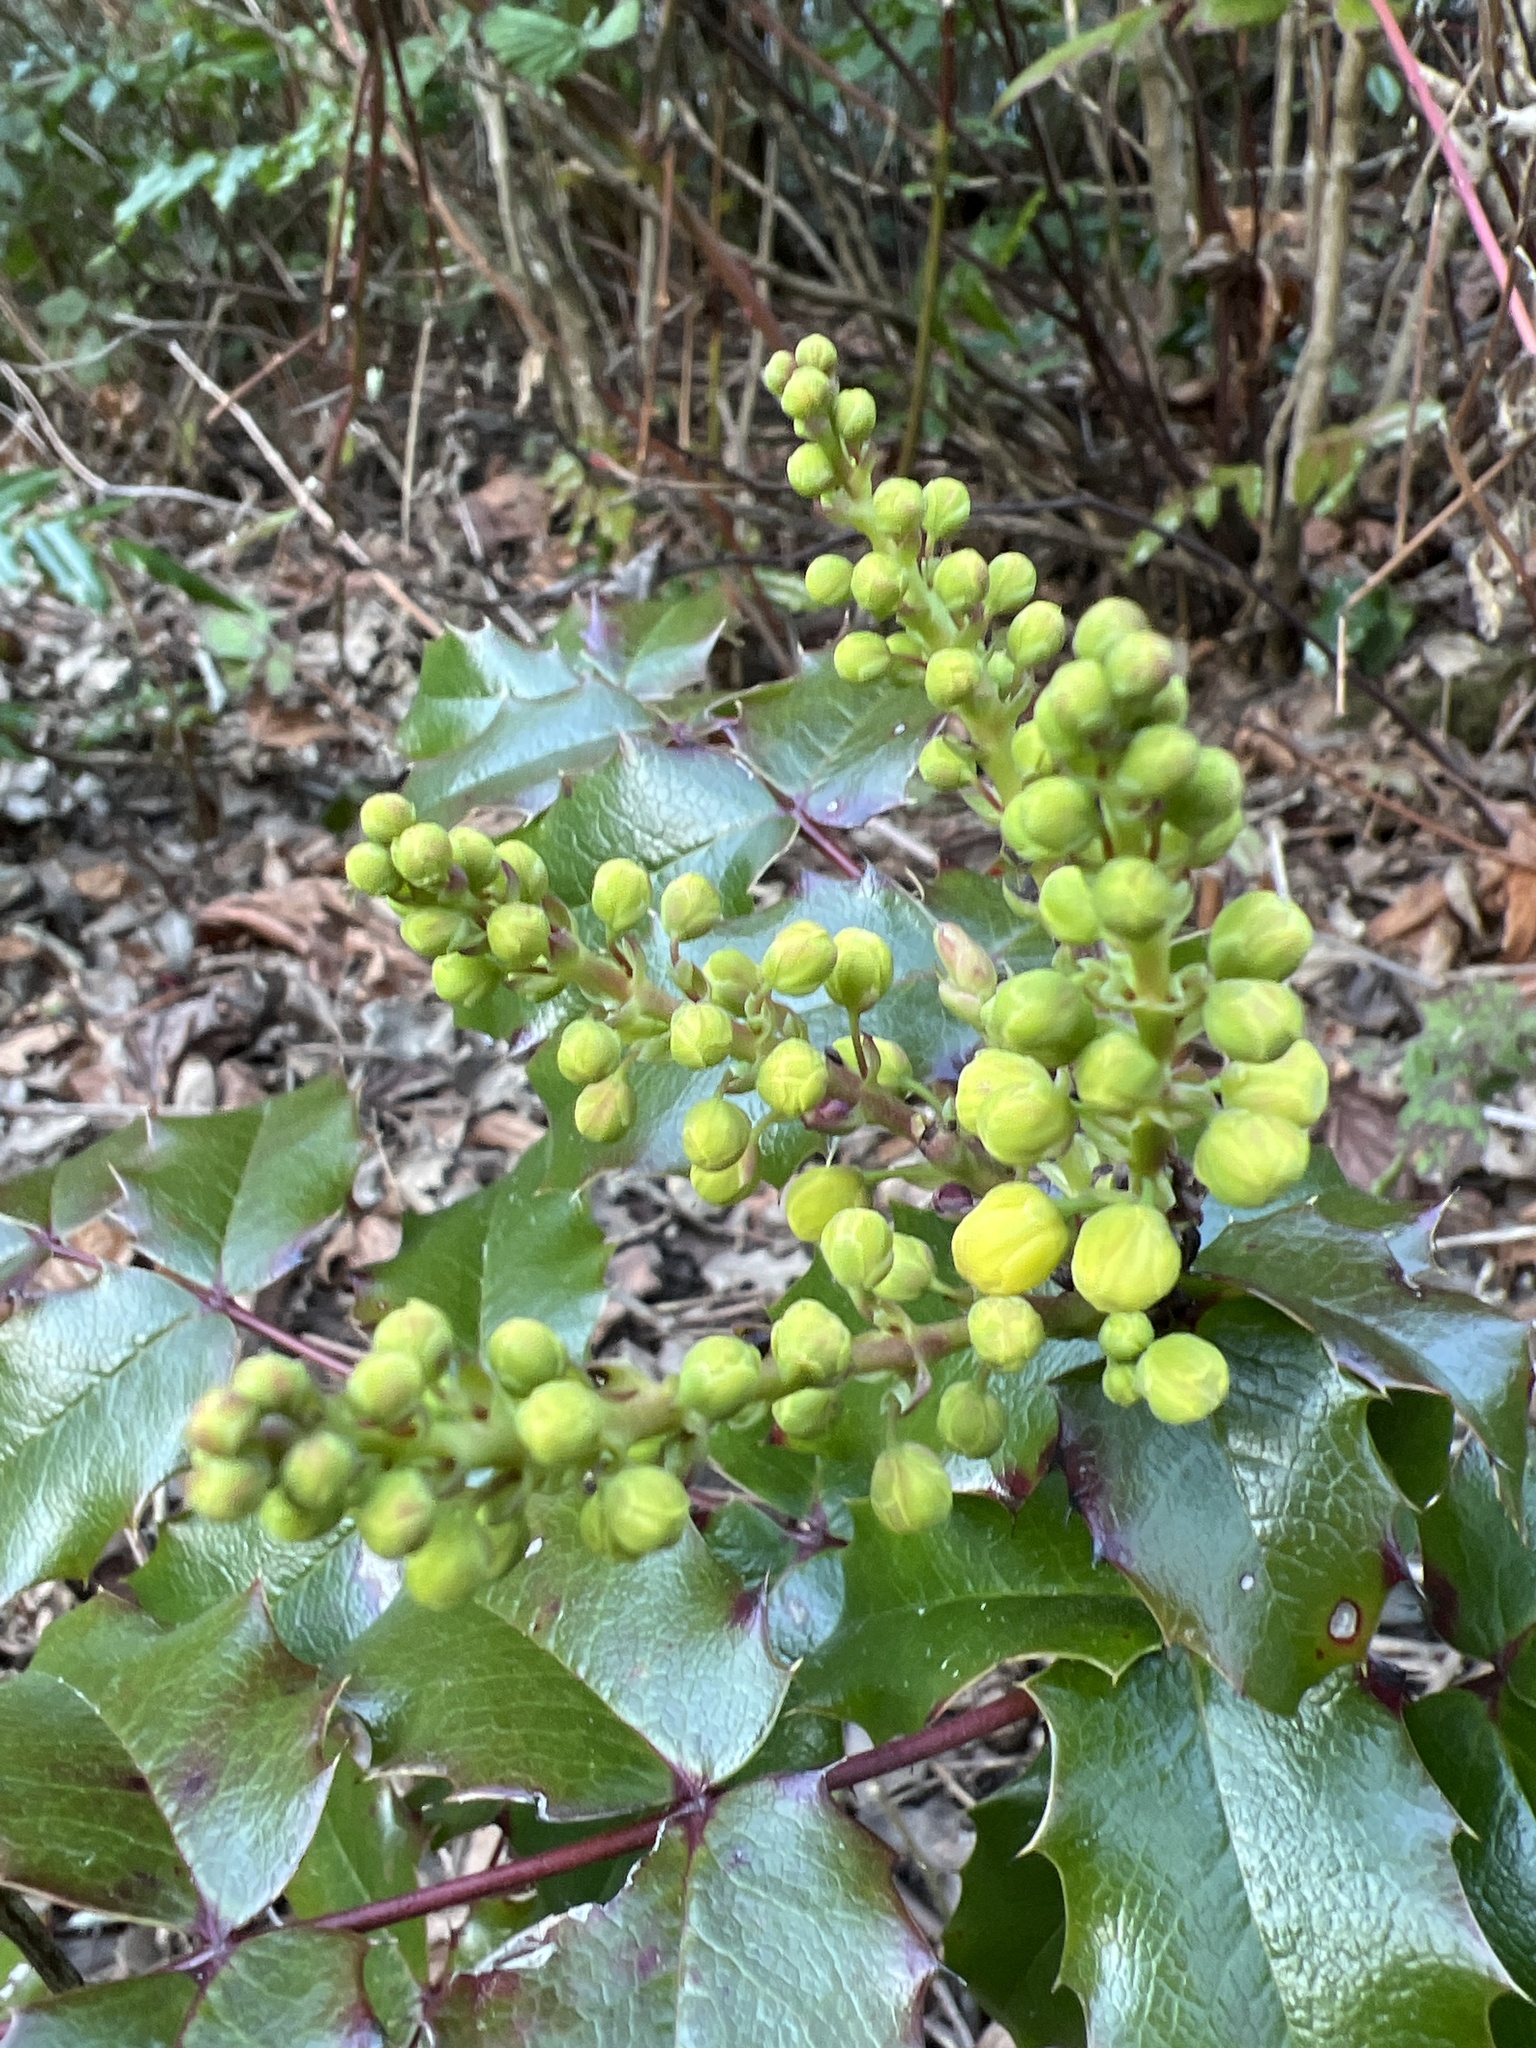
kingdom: Plantae
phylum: Tracheophyta
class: Magnoliopsida
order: Ranunculales
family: Berberidaceae
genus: Mahonia
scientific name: Mahonia aquifolium
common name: Oregon-grape
